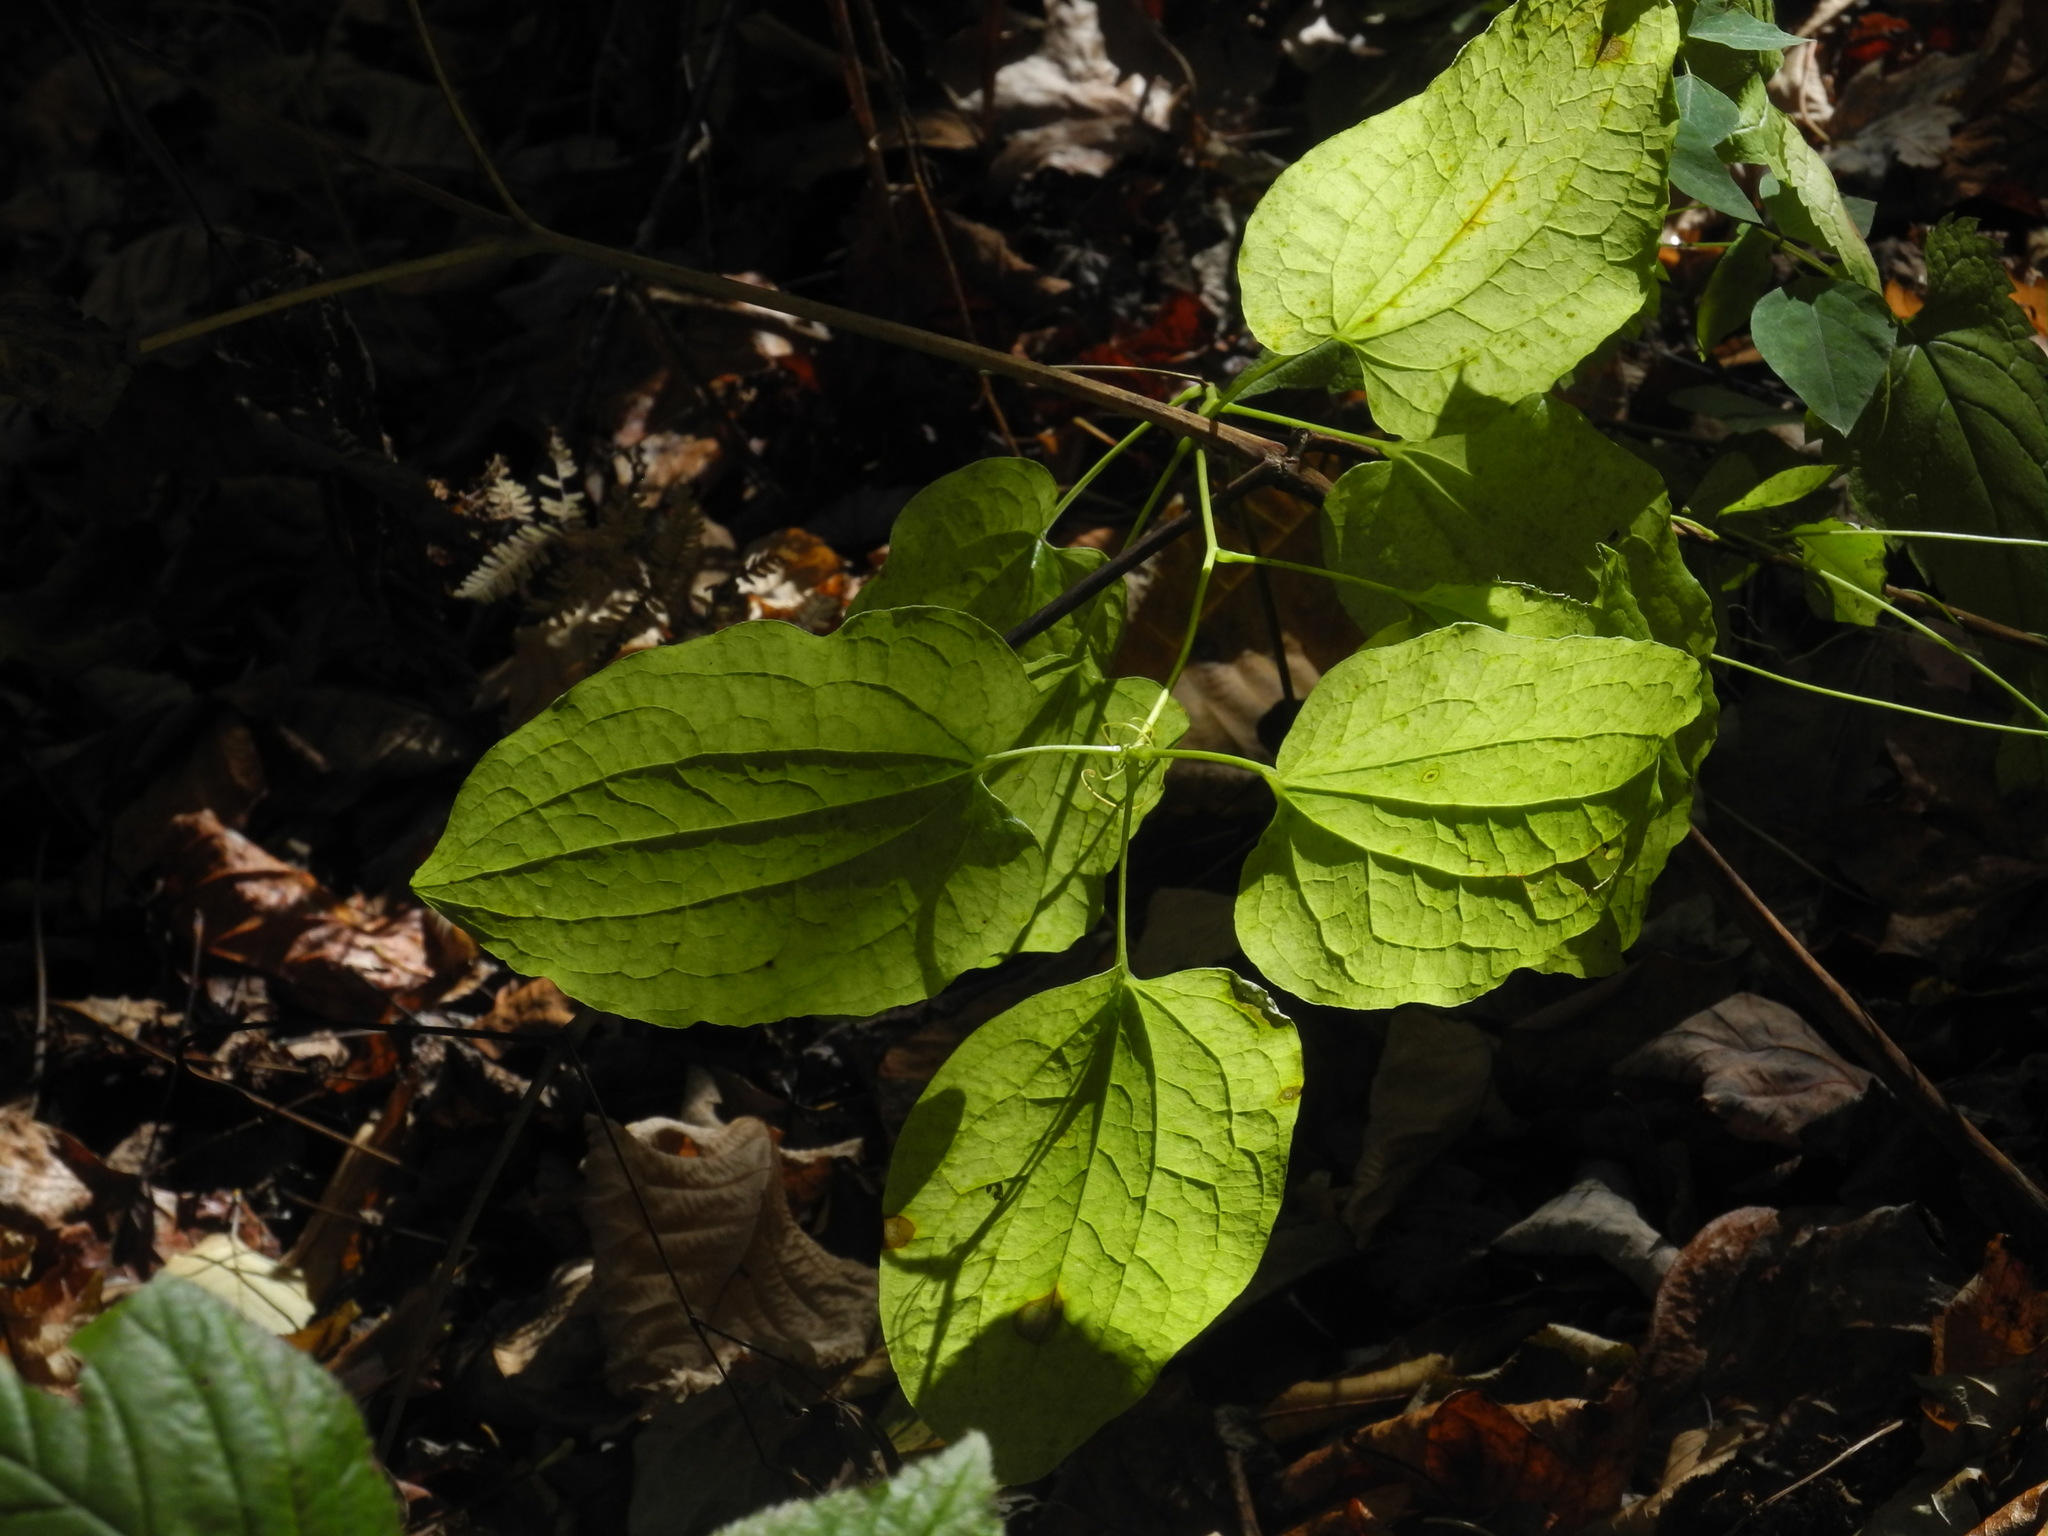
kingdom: Plantae
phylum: Tracheophyta
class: Liliopsida
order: Liliales
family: Smilacaceae
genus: Smilax
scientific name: Smilax herbacea
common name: Jacob's-ladder
